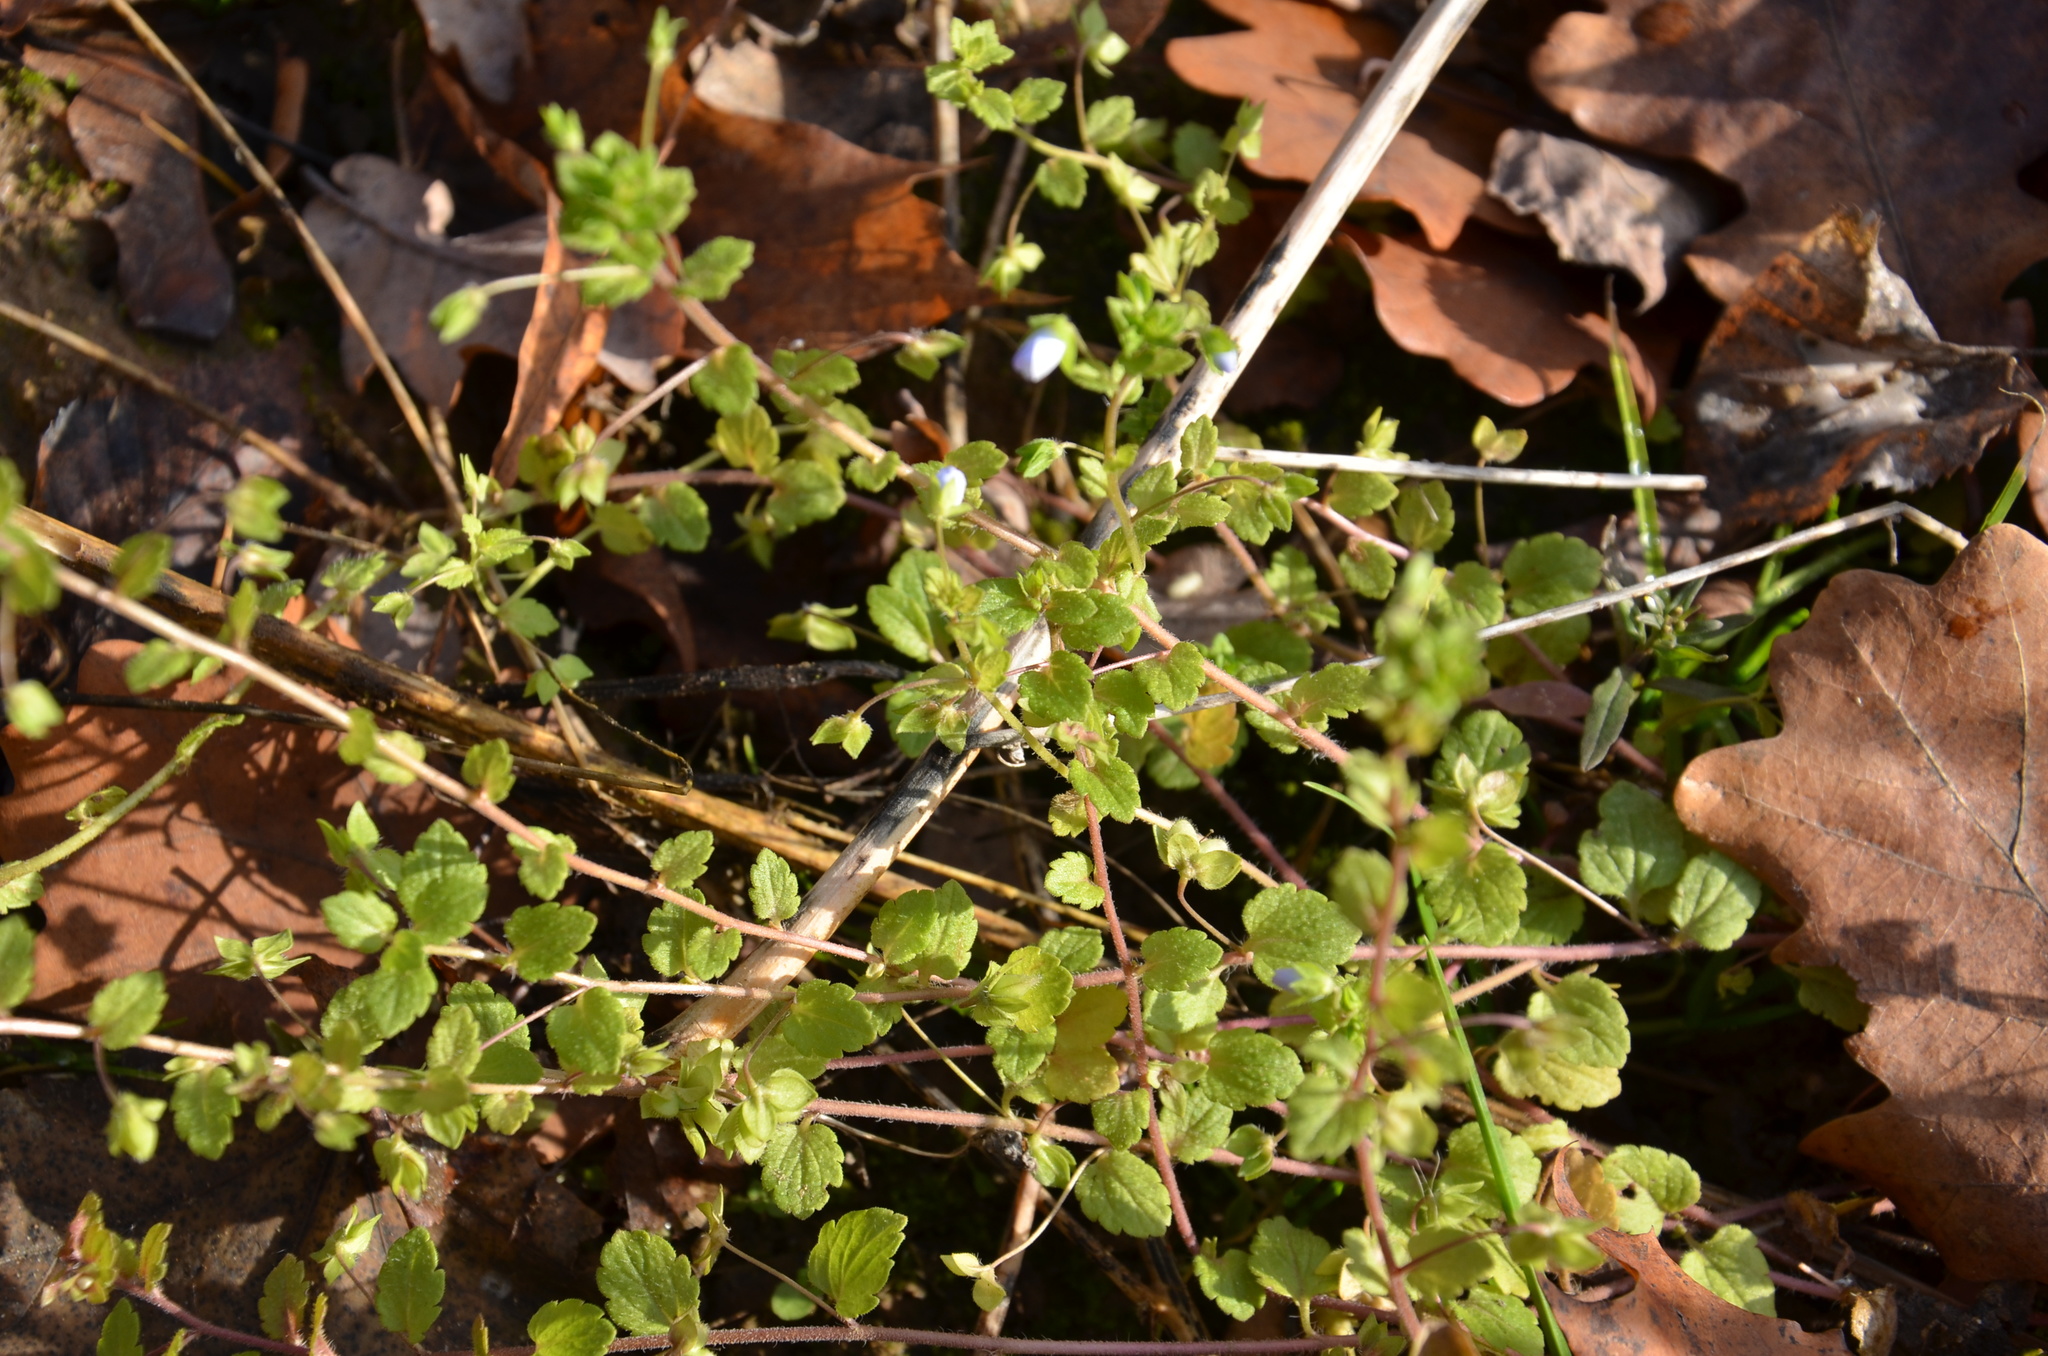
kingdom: Plantae
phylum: Tracheophyta
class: Magnoliopsida
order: Lamiales
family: Plantaginaceae
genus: Veronica
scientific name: Veronica persica
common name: Common field-speedwell
